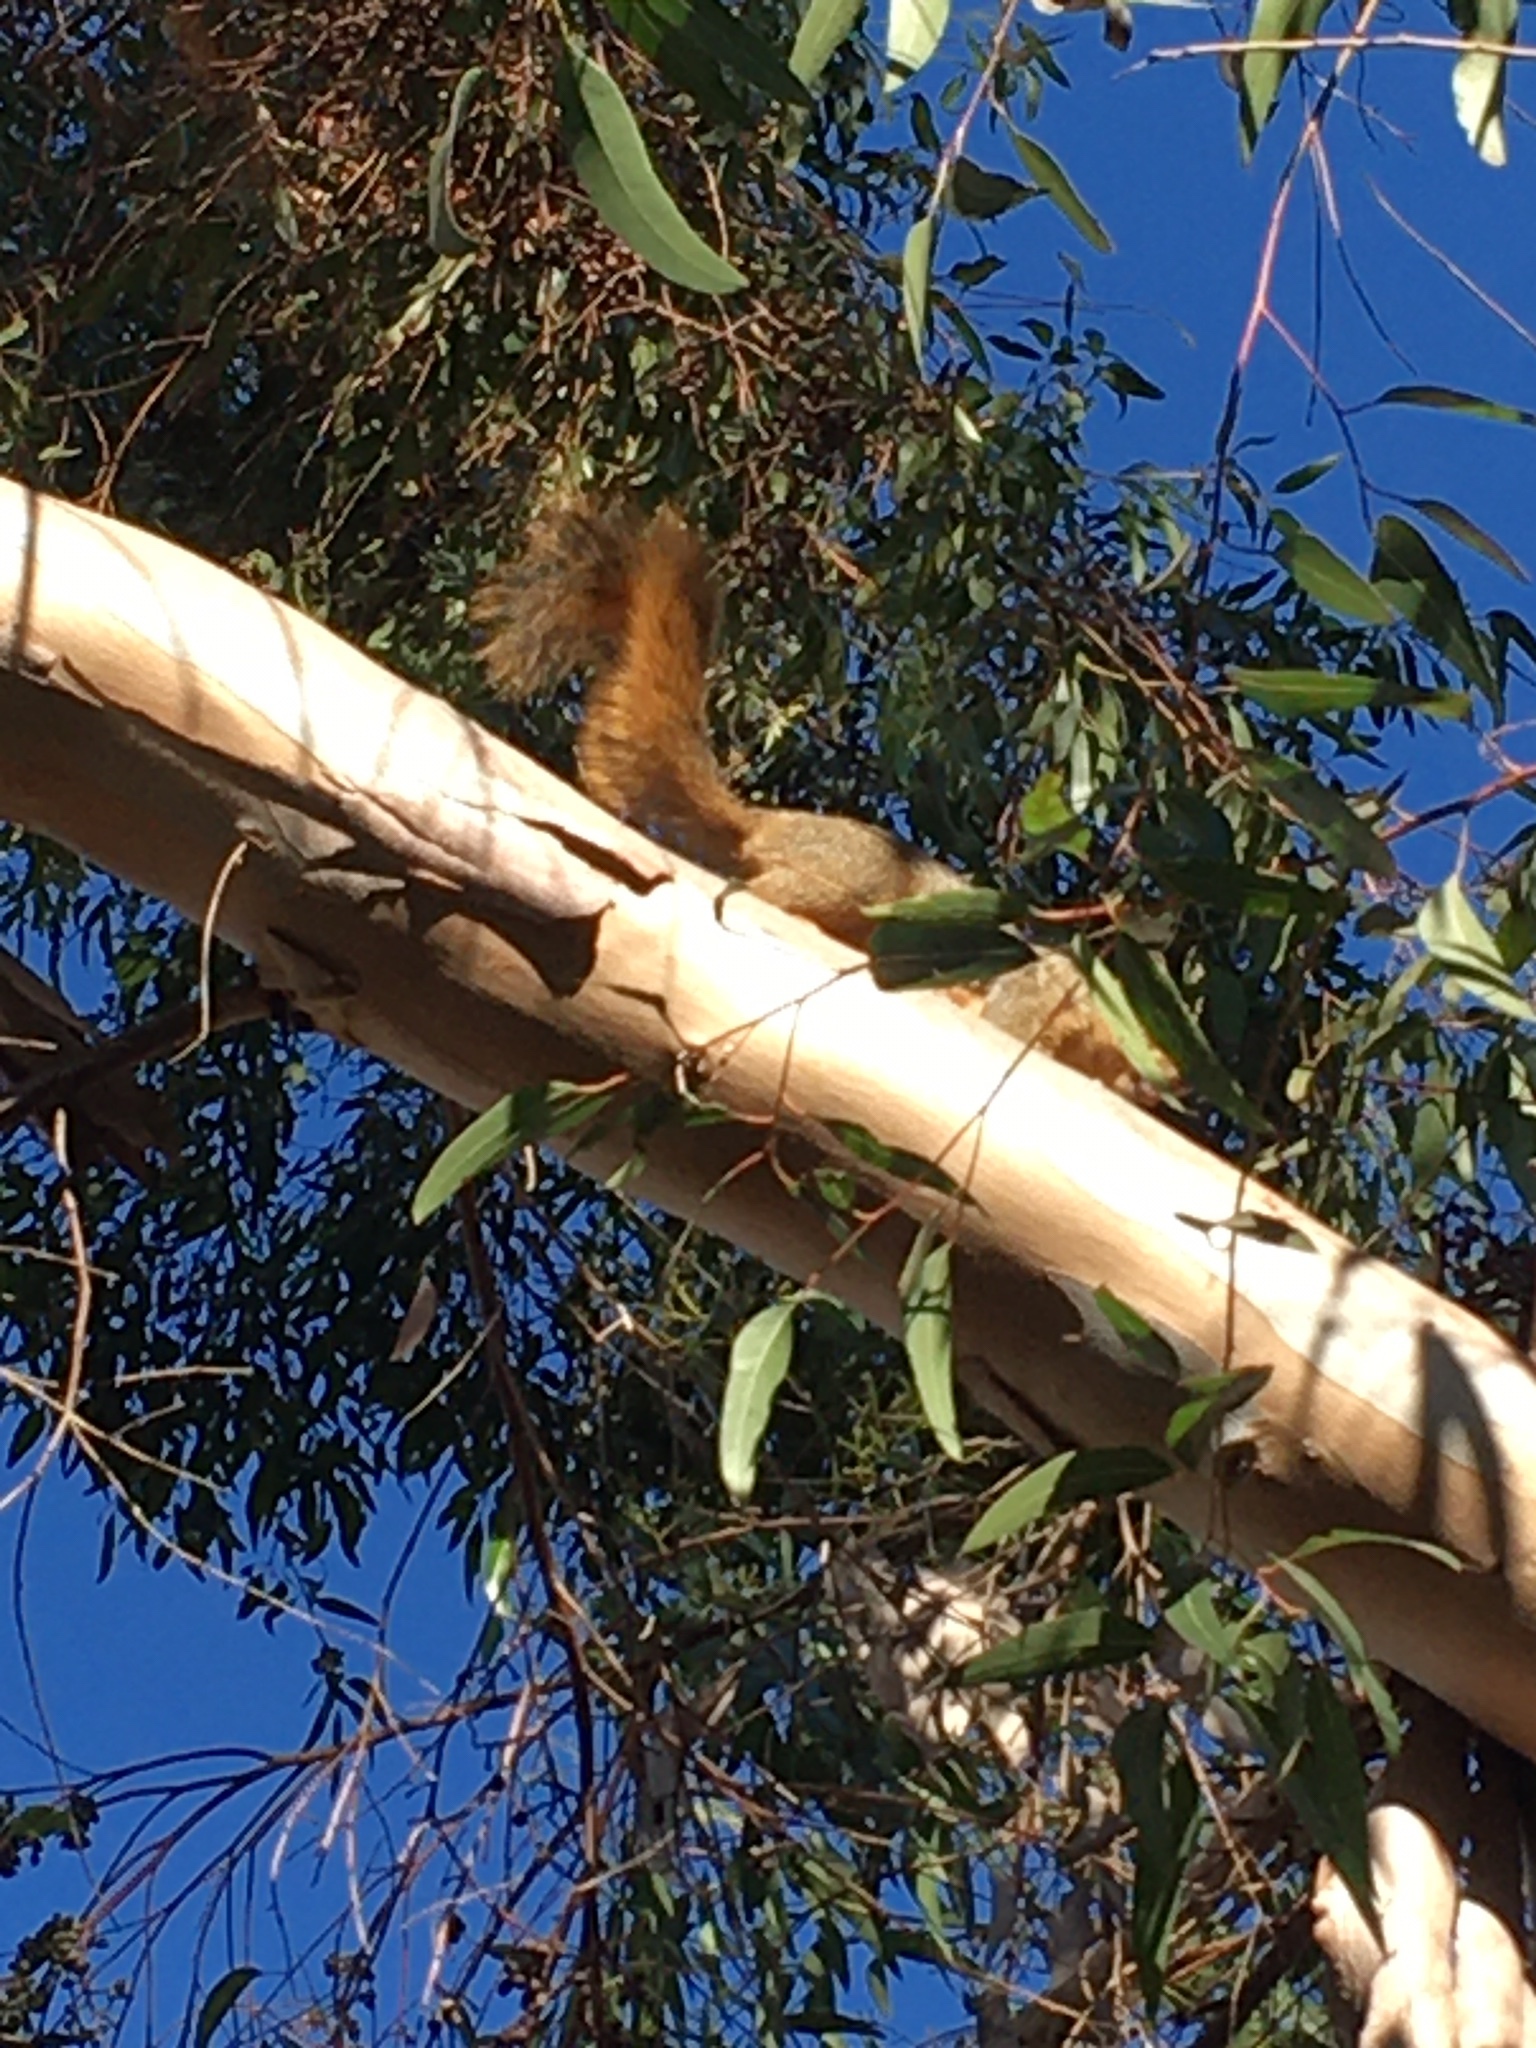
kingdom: Animalia
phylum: Chordata
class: Mammalia
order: Rodentia
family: Sciuridae
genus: Sciurus
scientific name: Sciurus niger
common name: Fox squirrel
